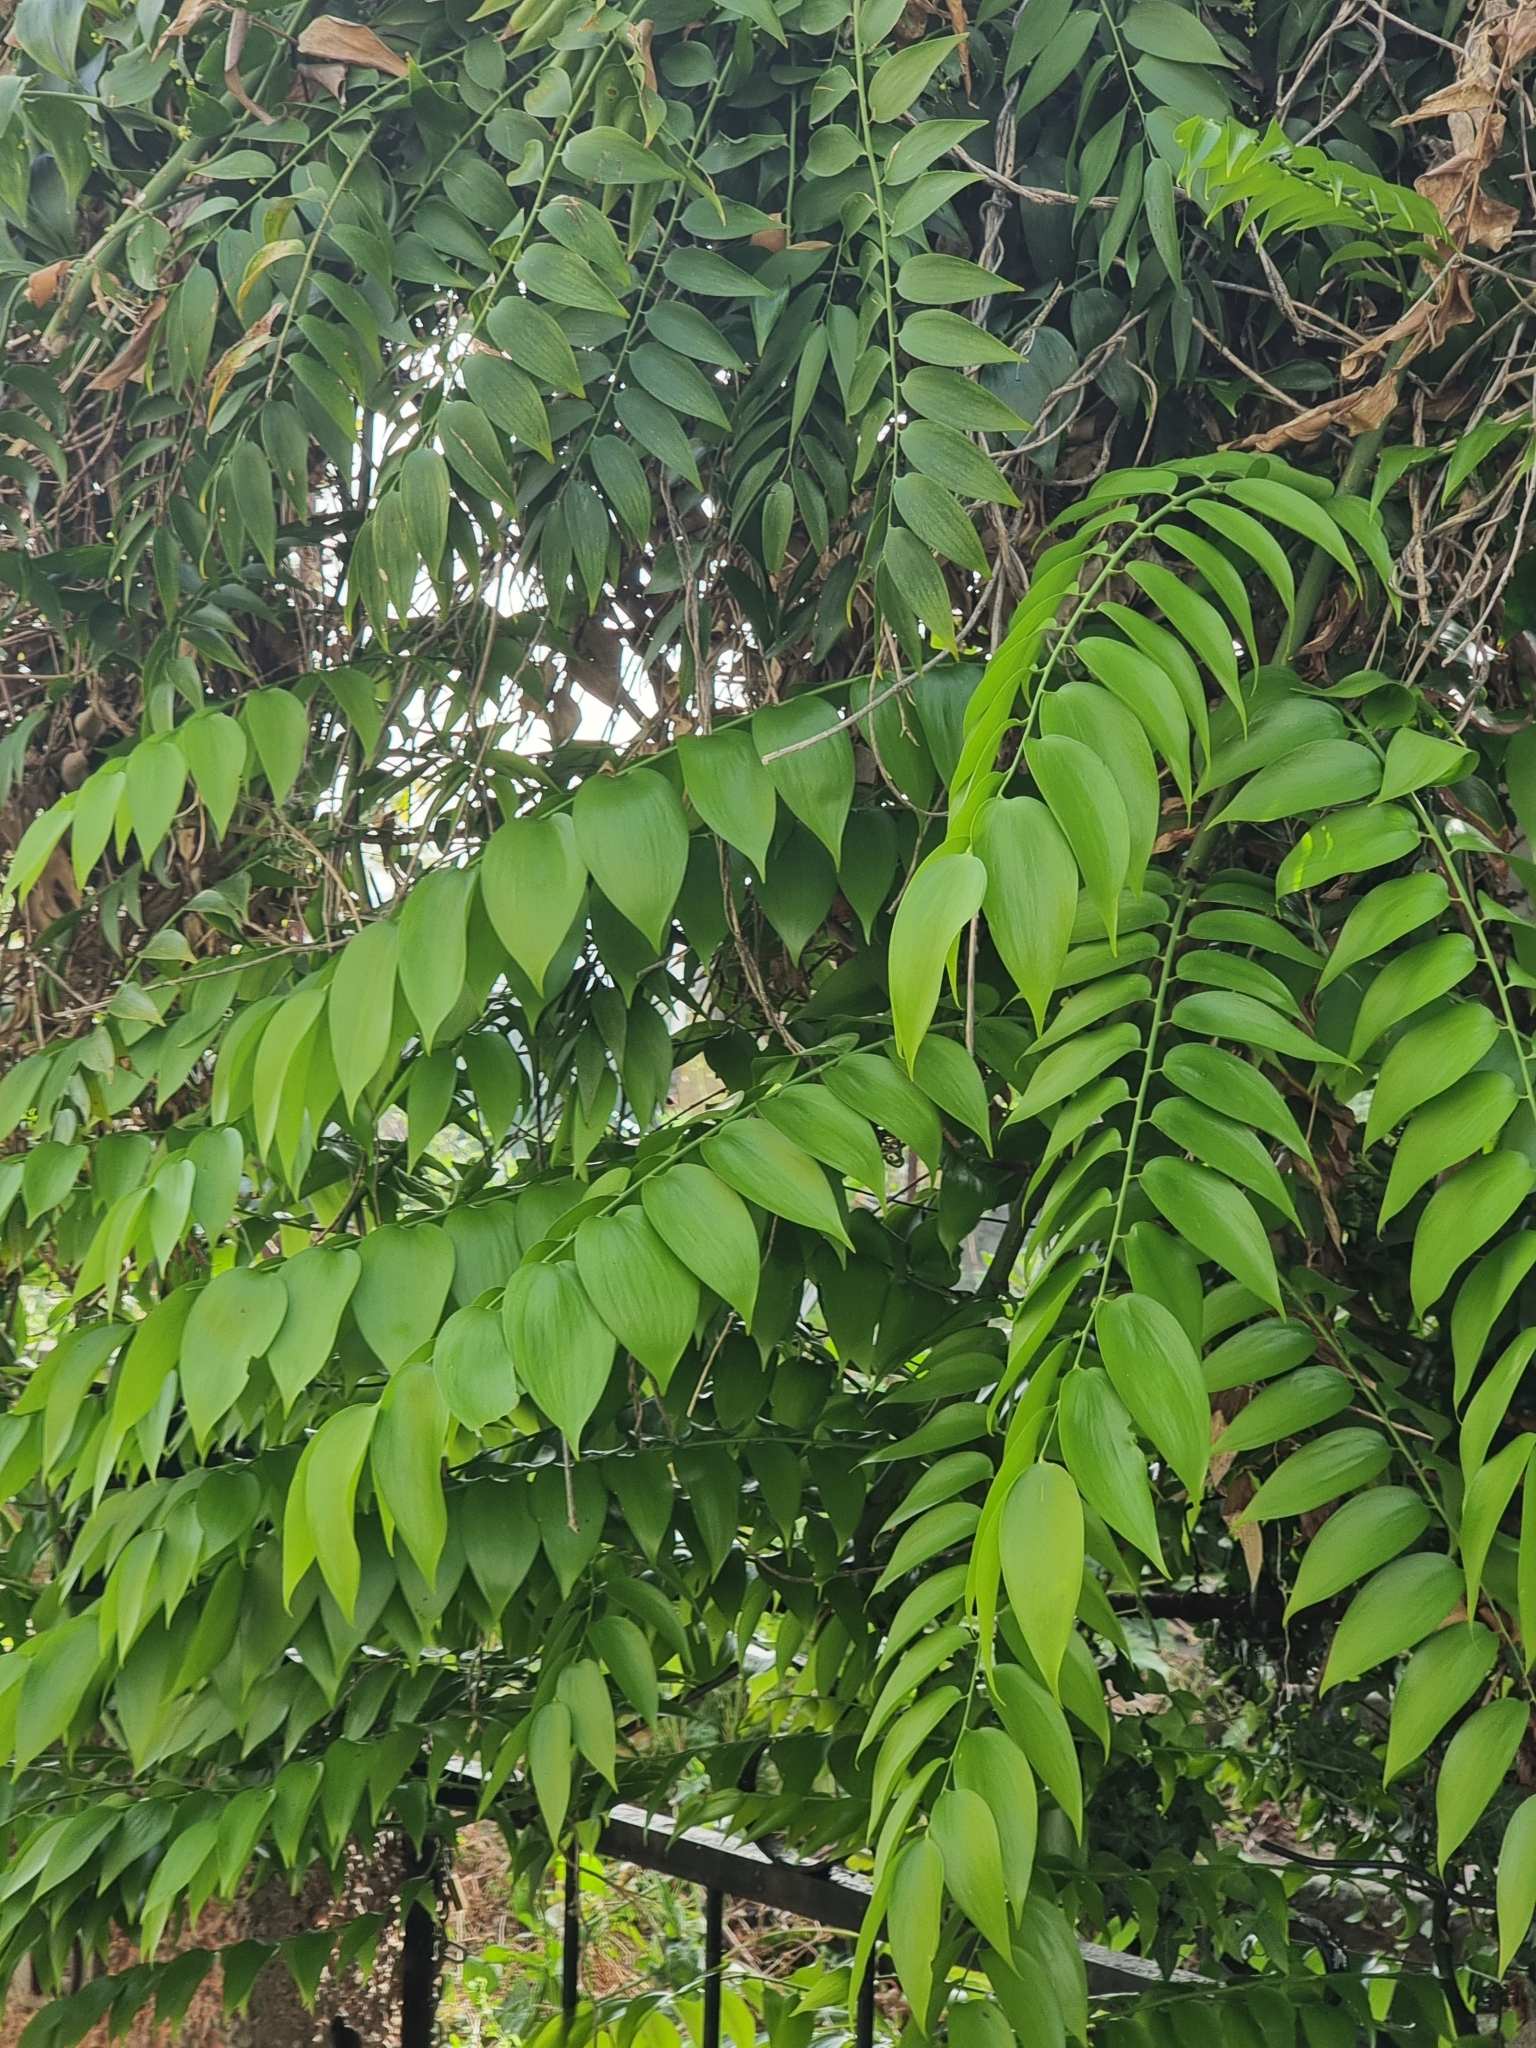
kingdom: Plantae
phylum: Tracheophyta
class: Liliopsida
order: Asparagales
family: Asparagaceae
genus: Semele
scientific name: Semele androgyna
